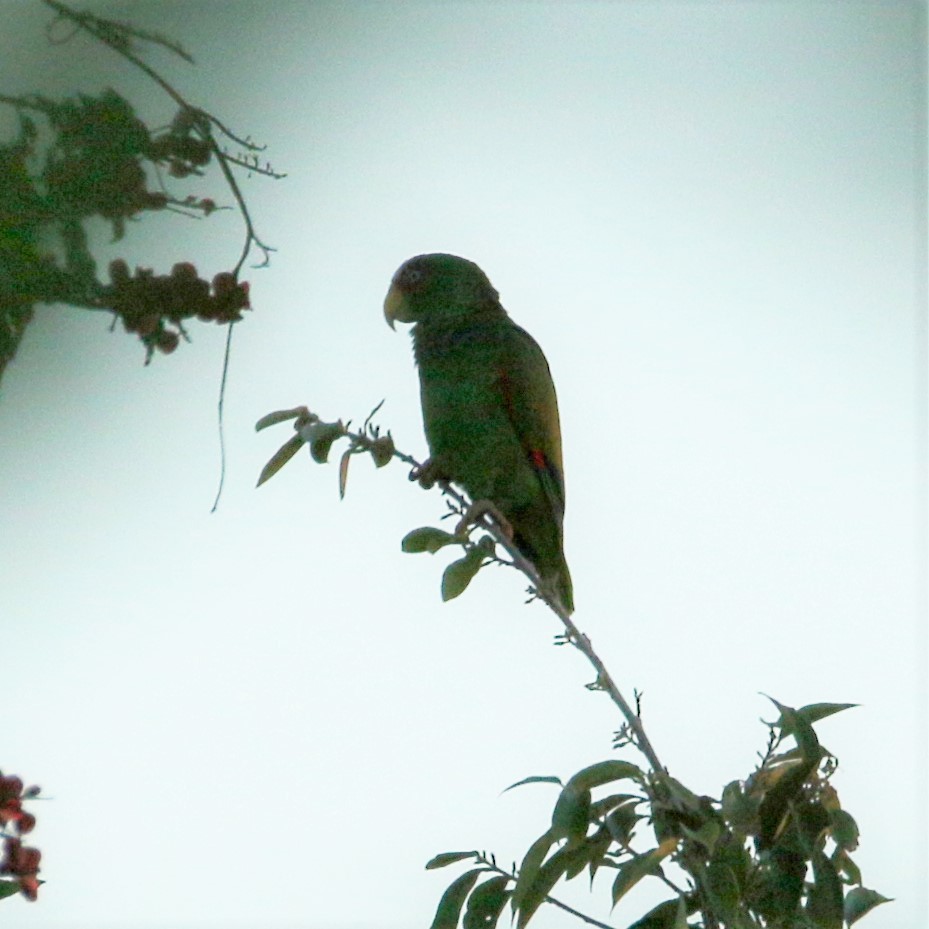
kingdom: Animalia
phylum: Chordata
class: Aves
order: Psittaciformes
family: Psittacidae
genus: Amazona
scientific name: Amazona albifrons
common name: White-fronted amazon
